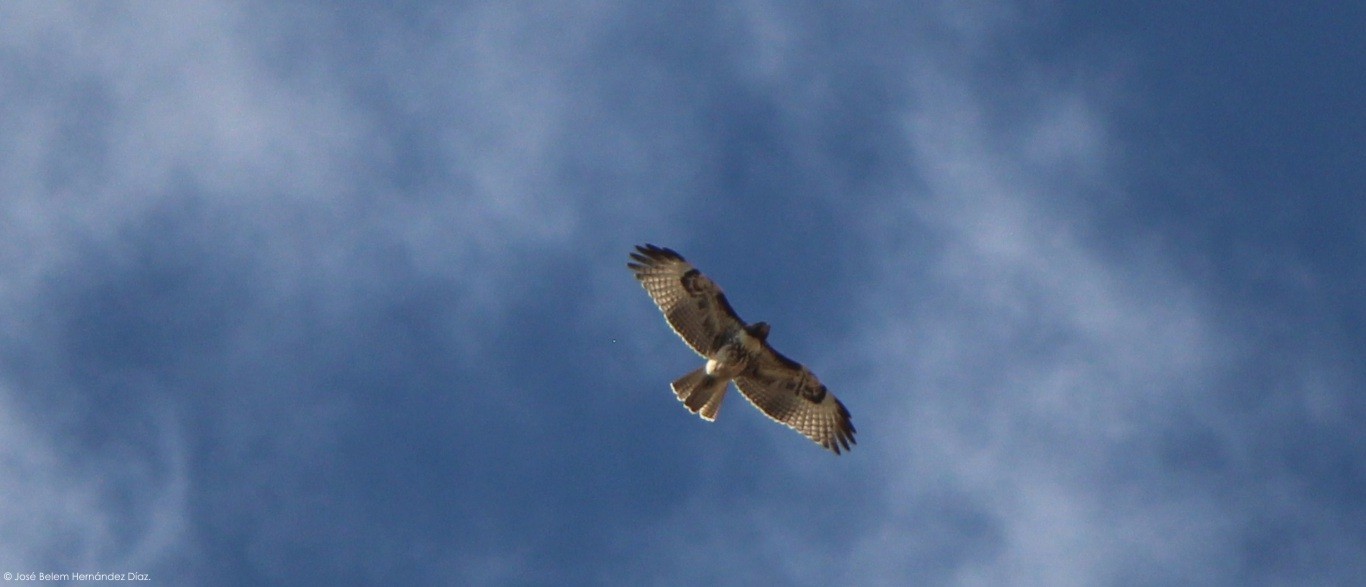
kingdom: Animalia
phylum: Chordata
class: Aves
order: Accipitriformes
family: Accipitridae
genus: Buteo
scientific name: Buteo jamaicensis
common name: Red-tailed hawk
